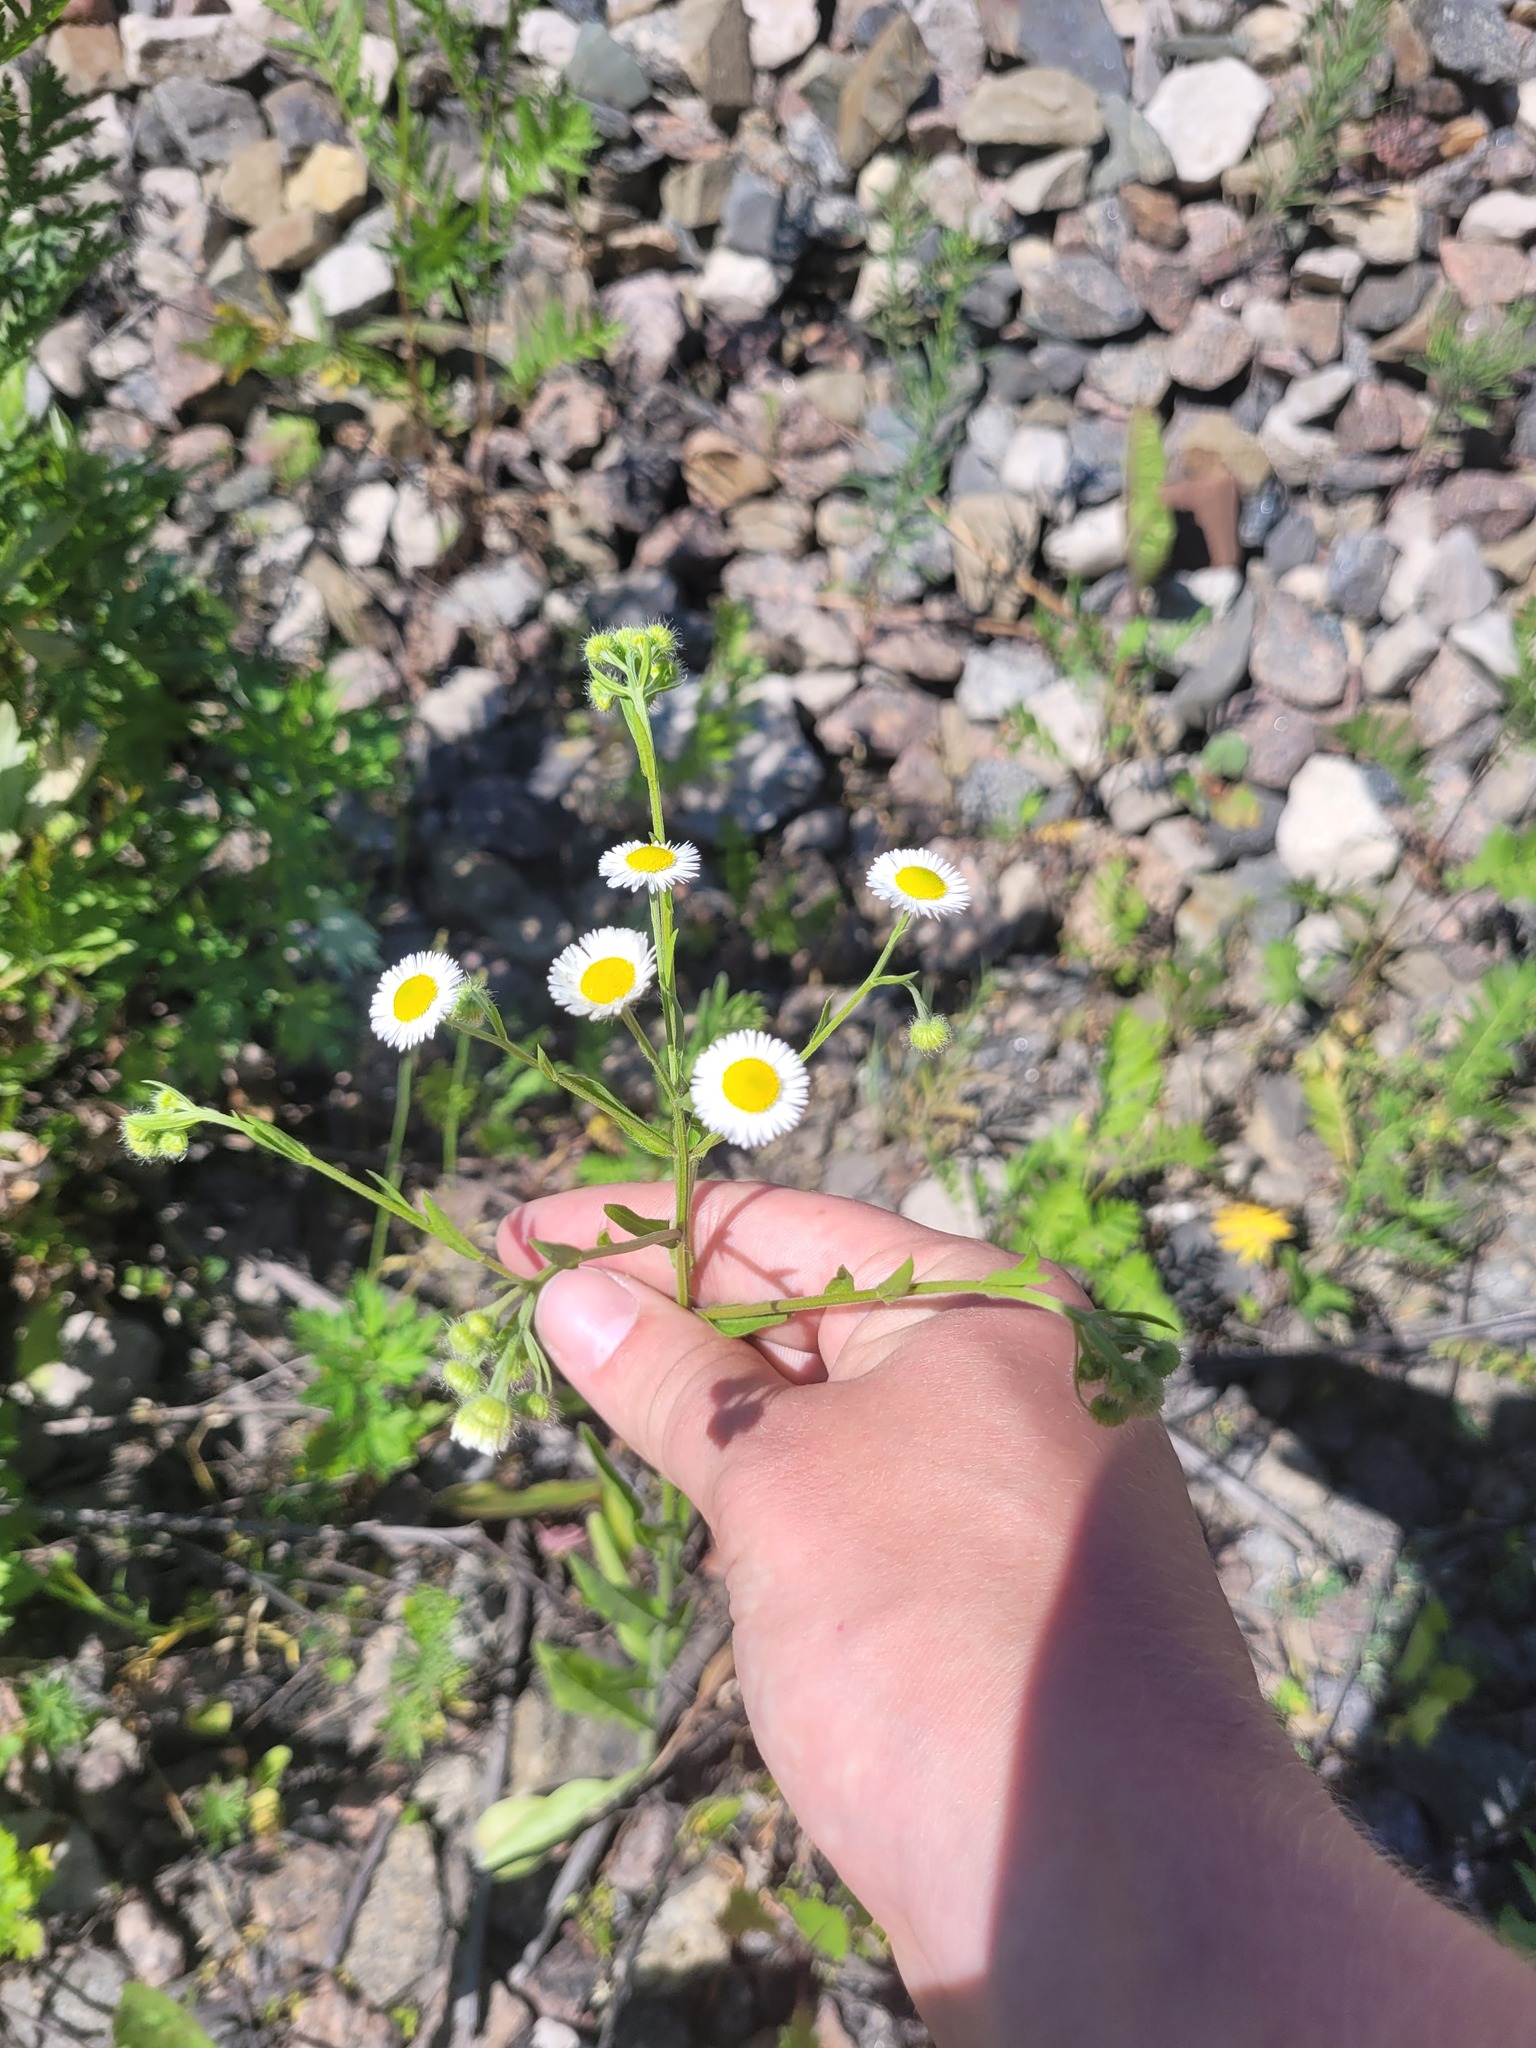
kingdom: Plantae
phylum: Tracheophyta
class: Magnoliopsida
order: Asterales
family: Asteraceae
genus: Erigeron
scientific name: Erigeron annuus
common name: Tall fleabane
